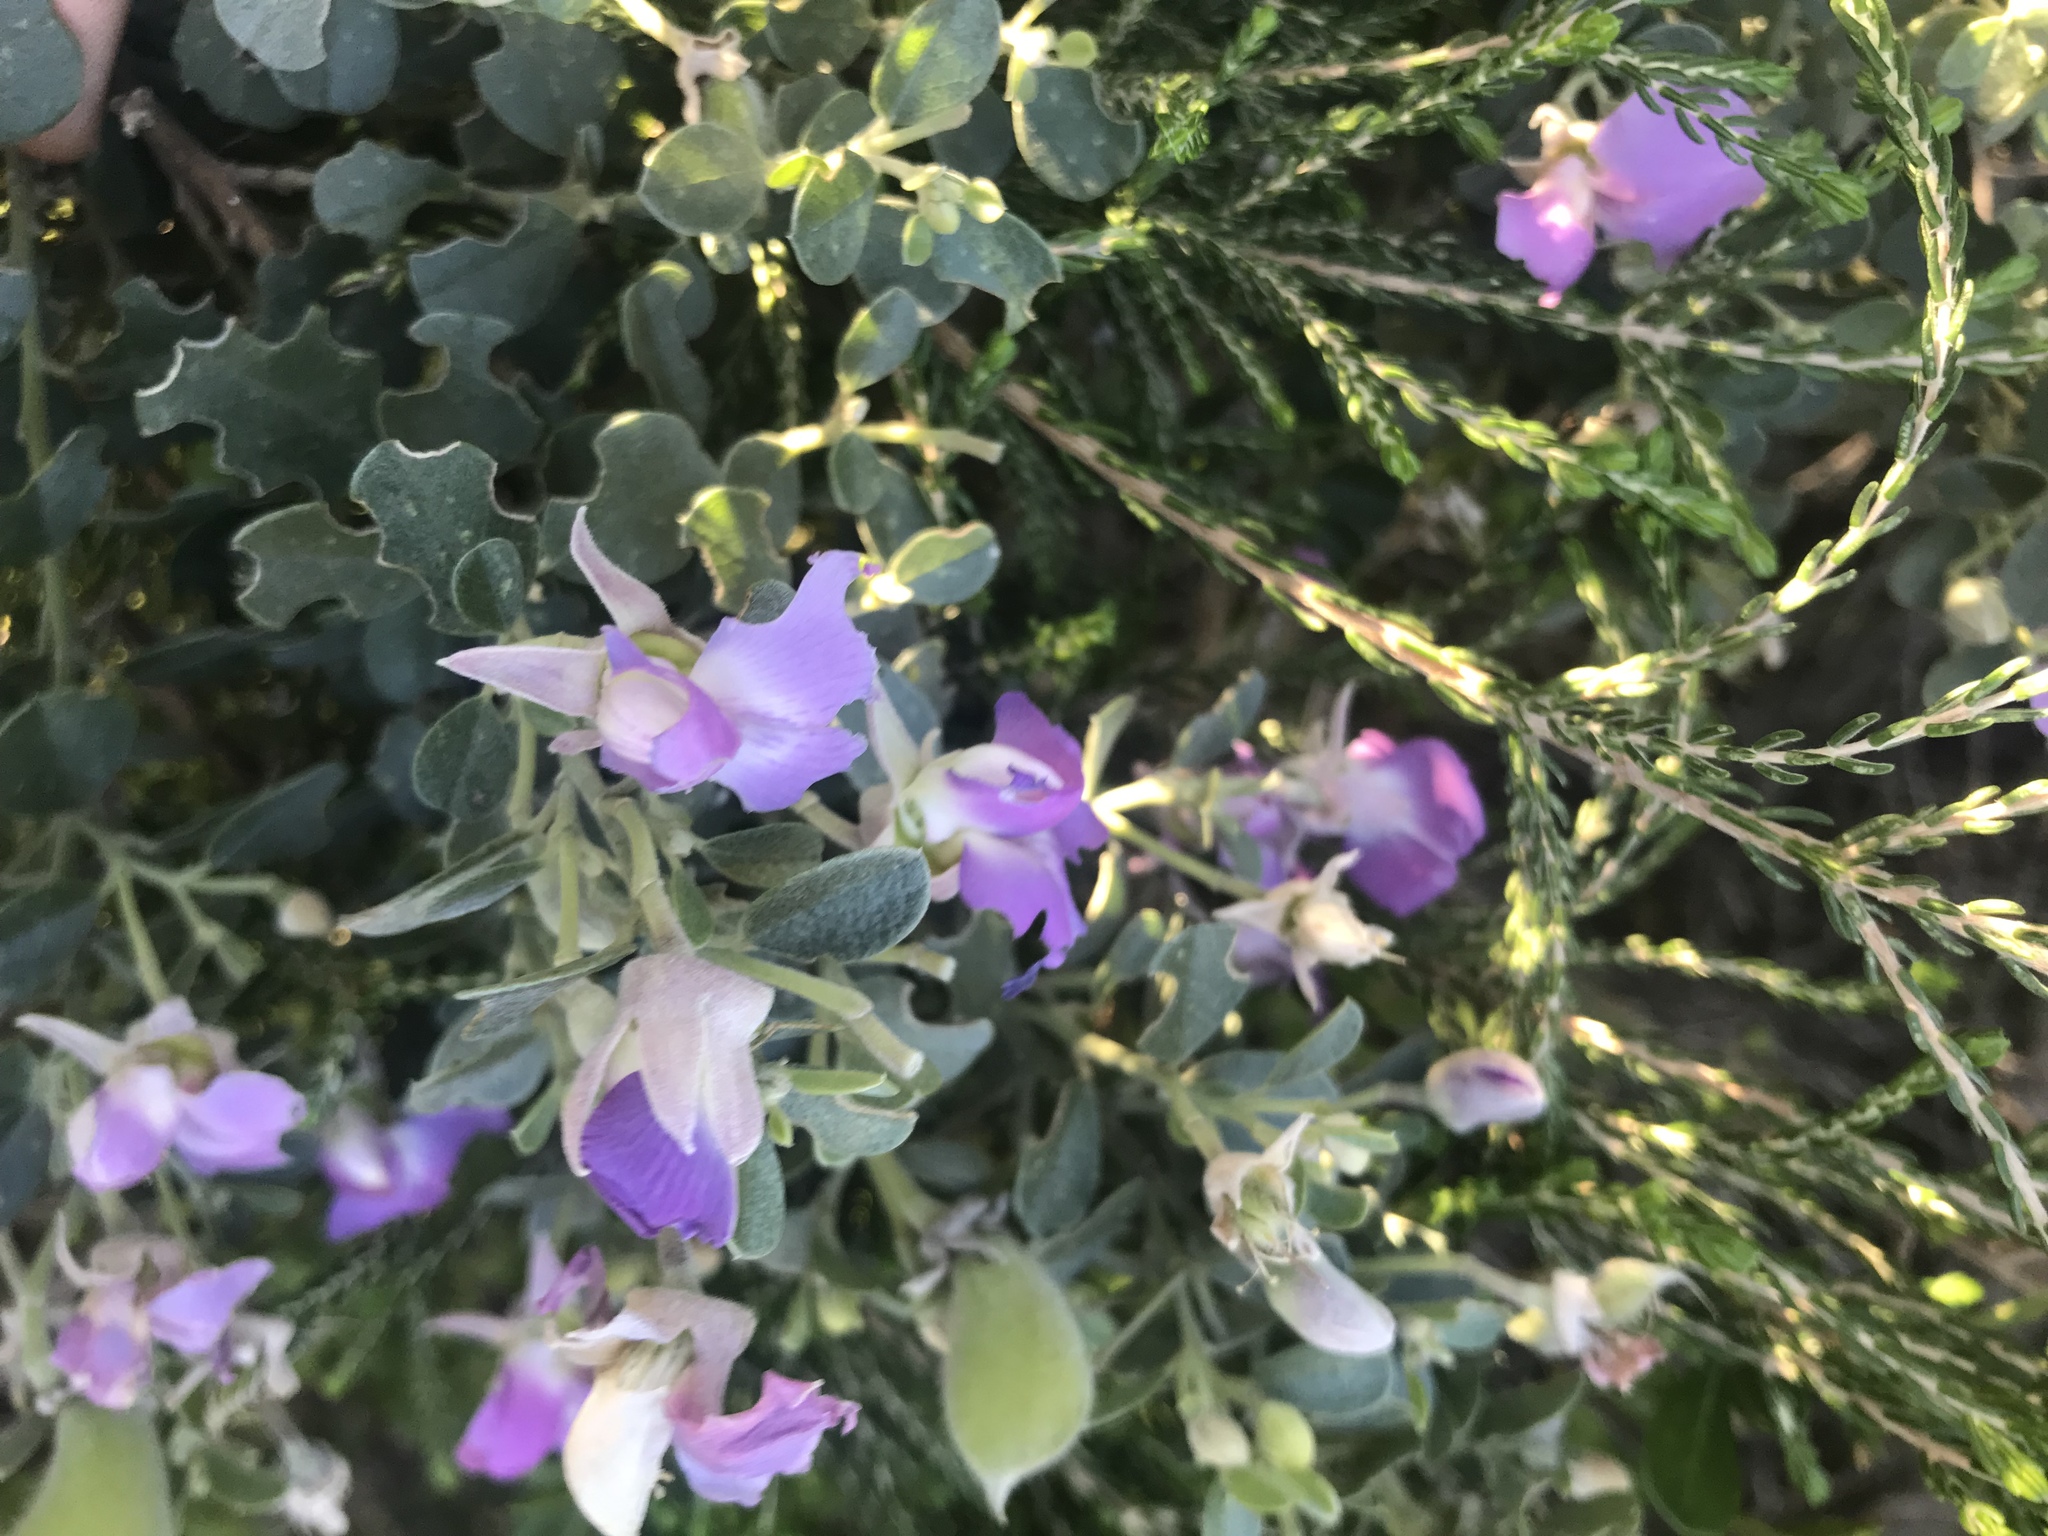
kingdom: Plantae
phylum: Tracheophyta
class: Magnoliopsida
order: Fabales
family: Fabaceae
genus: Podalyria
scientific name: Podalyria calyptrata
